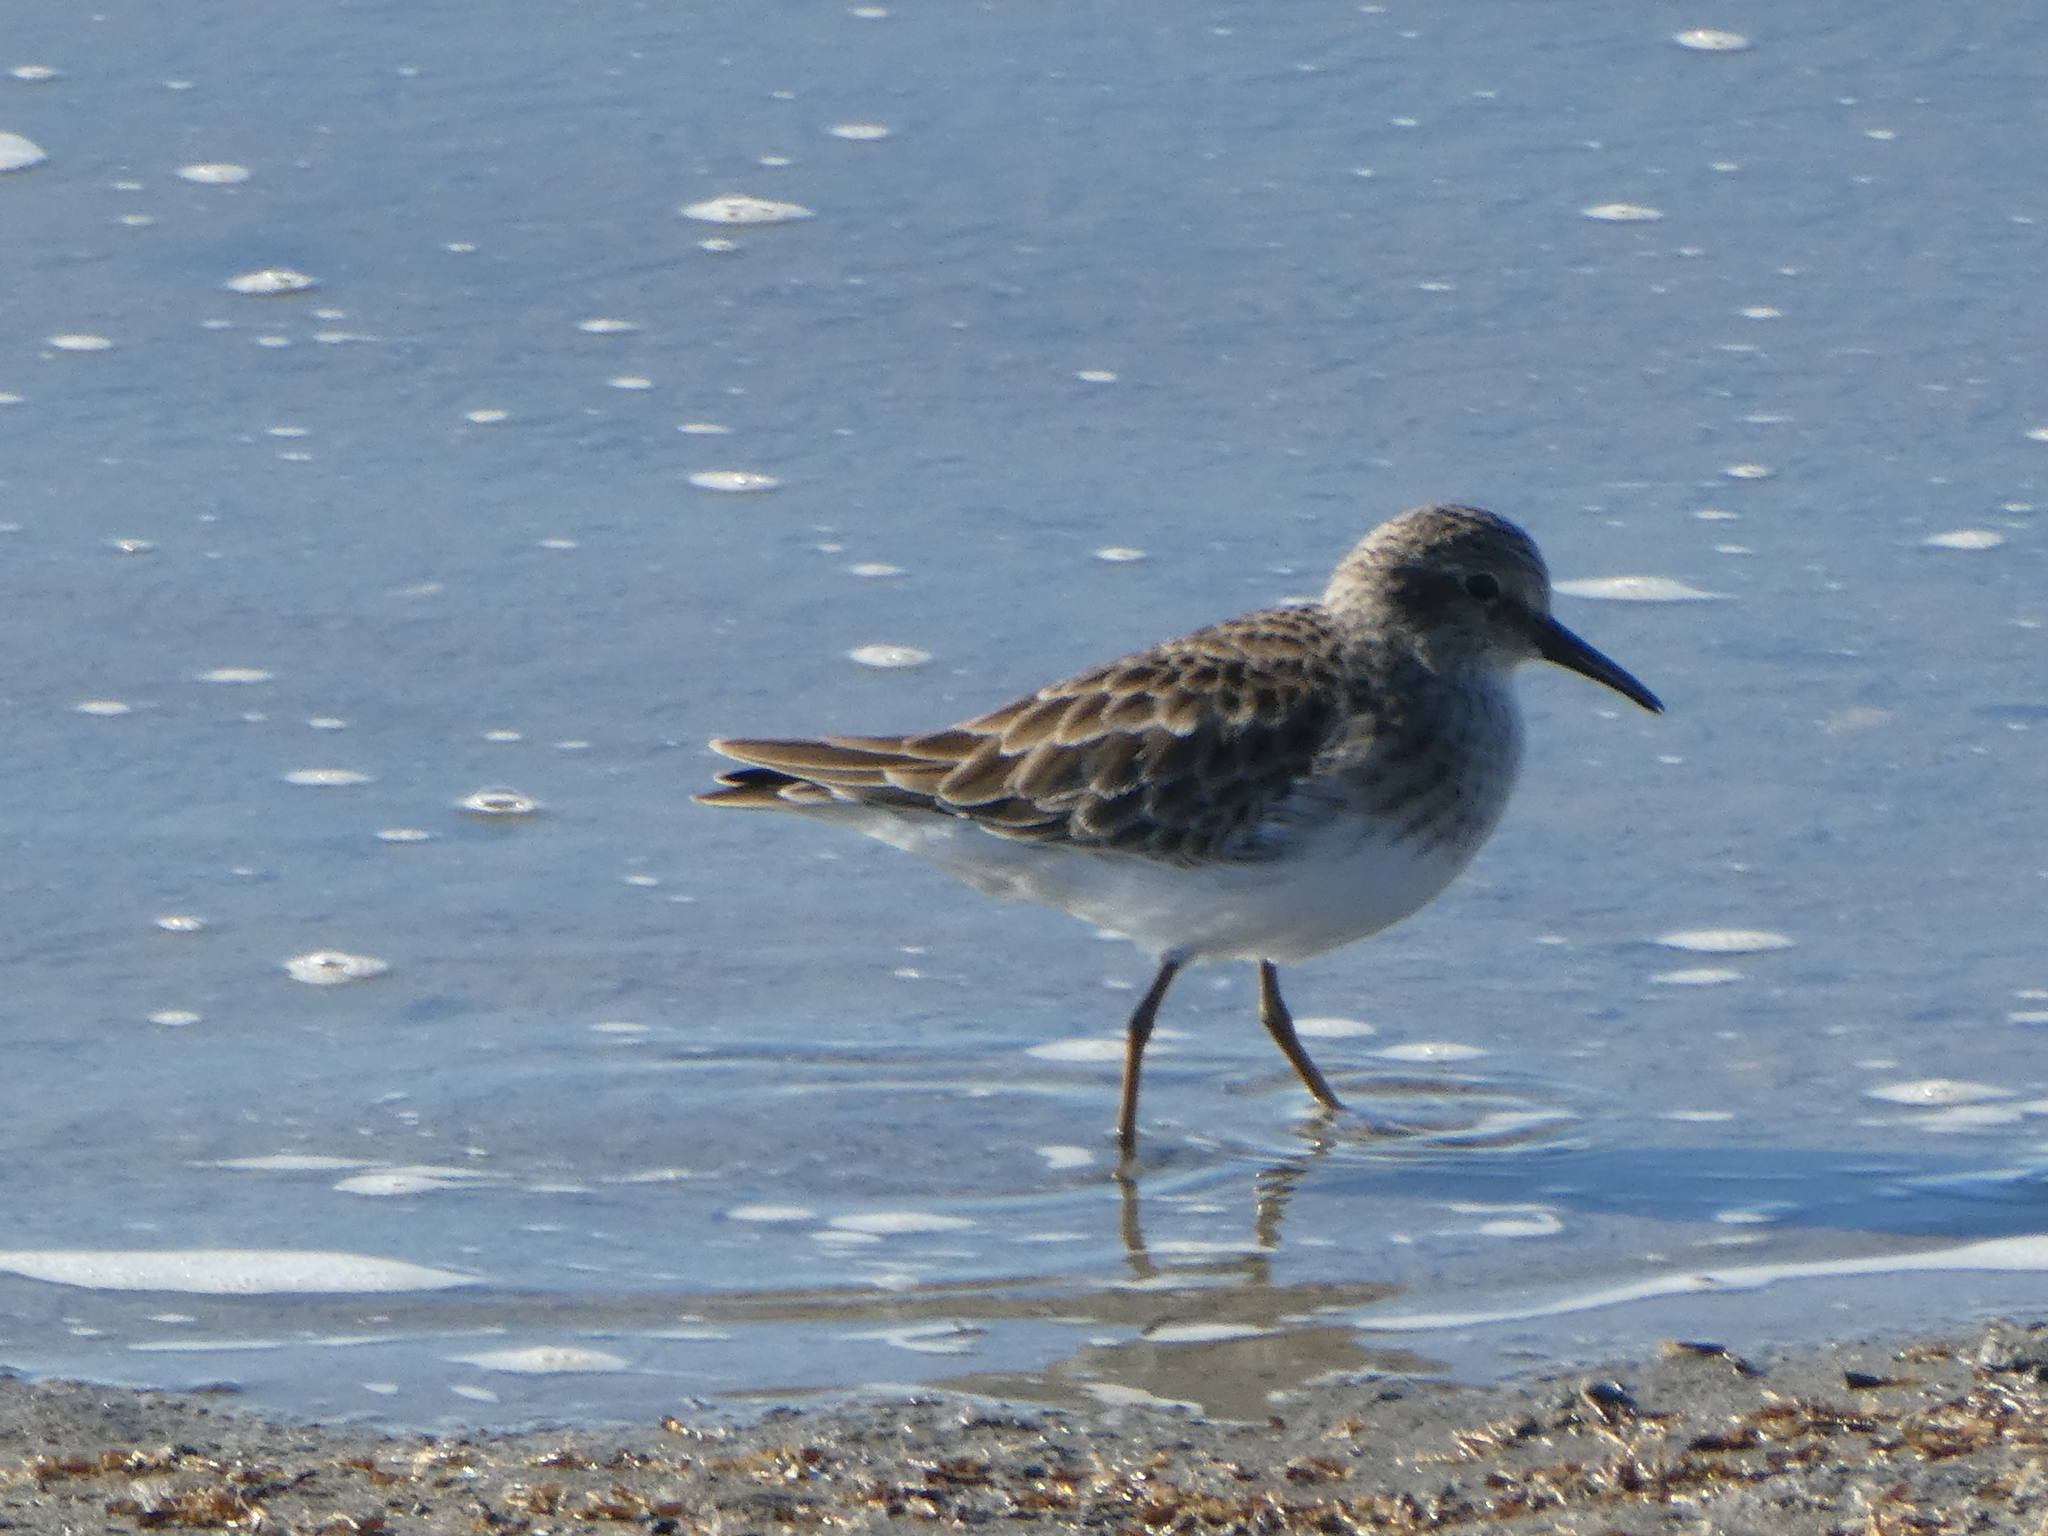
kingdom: Animalia
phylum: Chordata
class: Aves
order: Charadriiformes
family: Scolopacidae
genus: Calidris
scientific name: Calidris minutilla
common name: Least sandpiper
